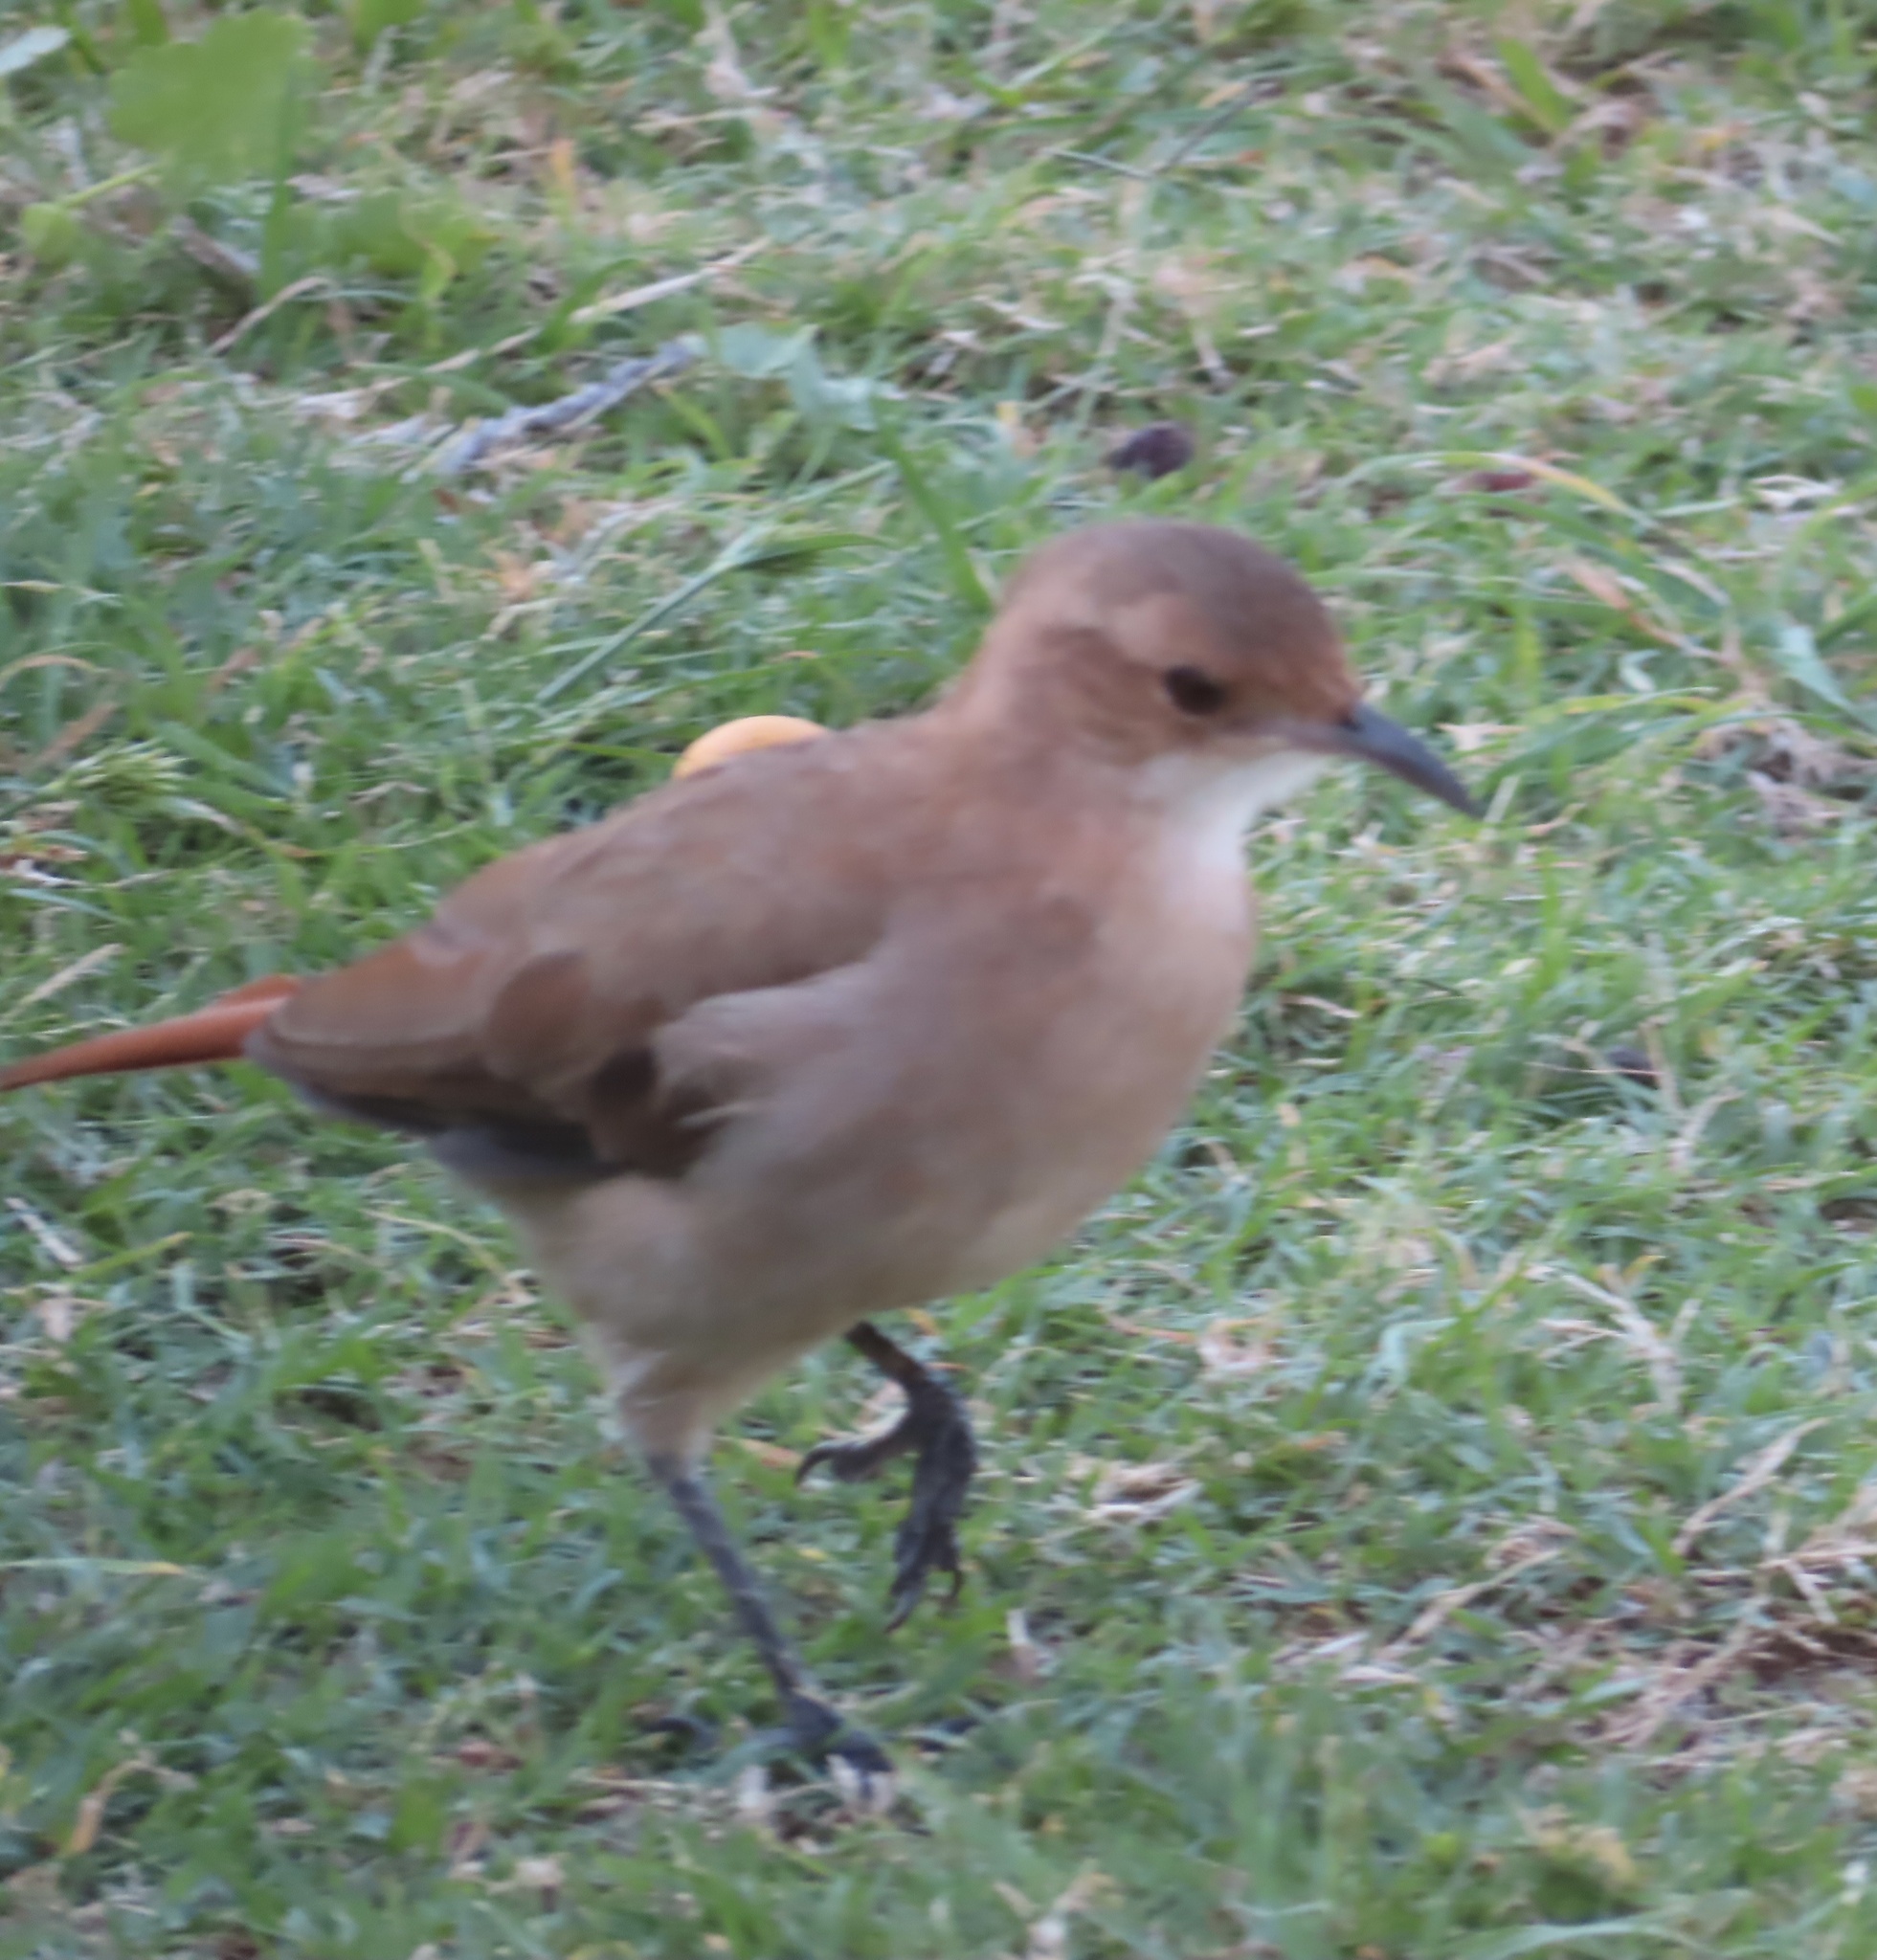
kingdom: Animalia
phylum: Chordata
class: Aves
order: Passeriformes
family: Furnariidae
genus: Furnarius
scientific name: Furnarius rufus
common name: Rufous hornero
